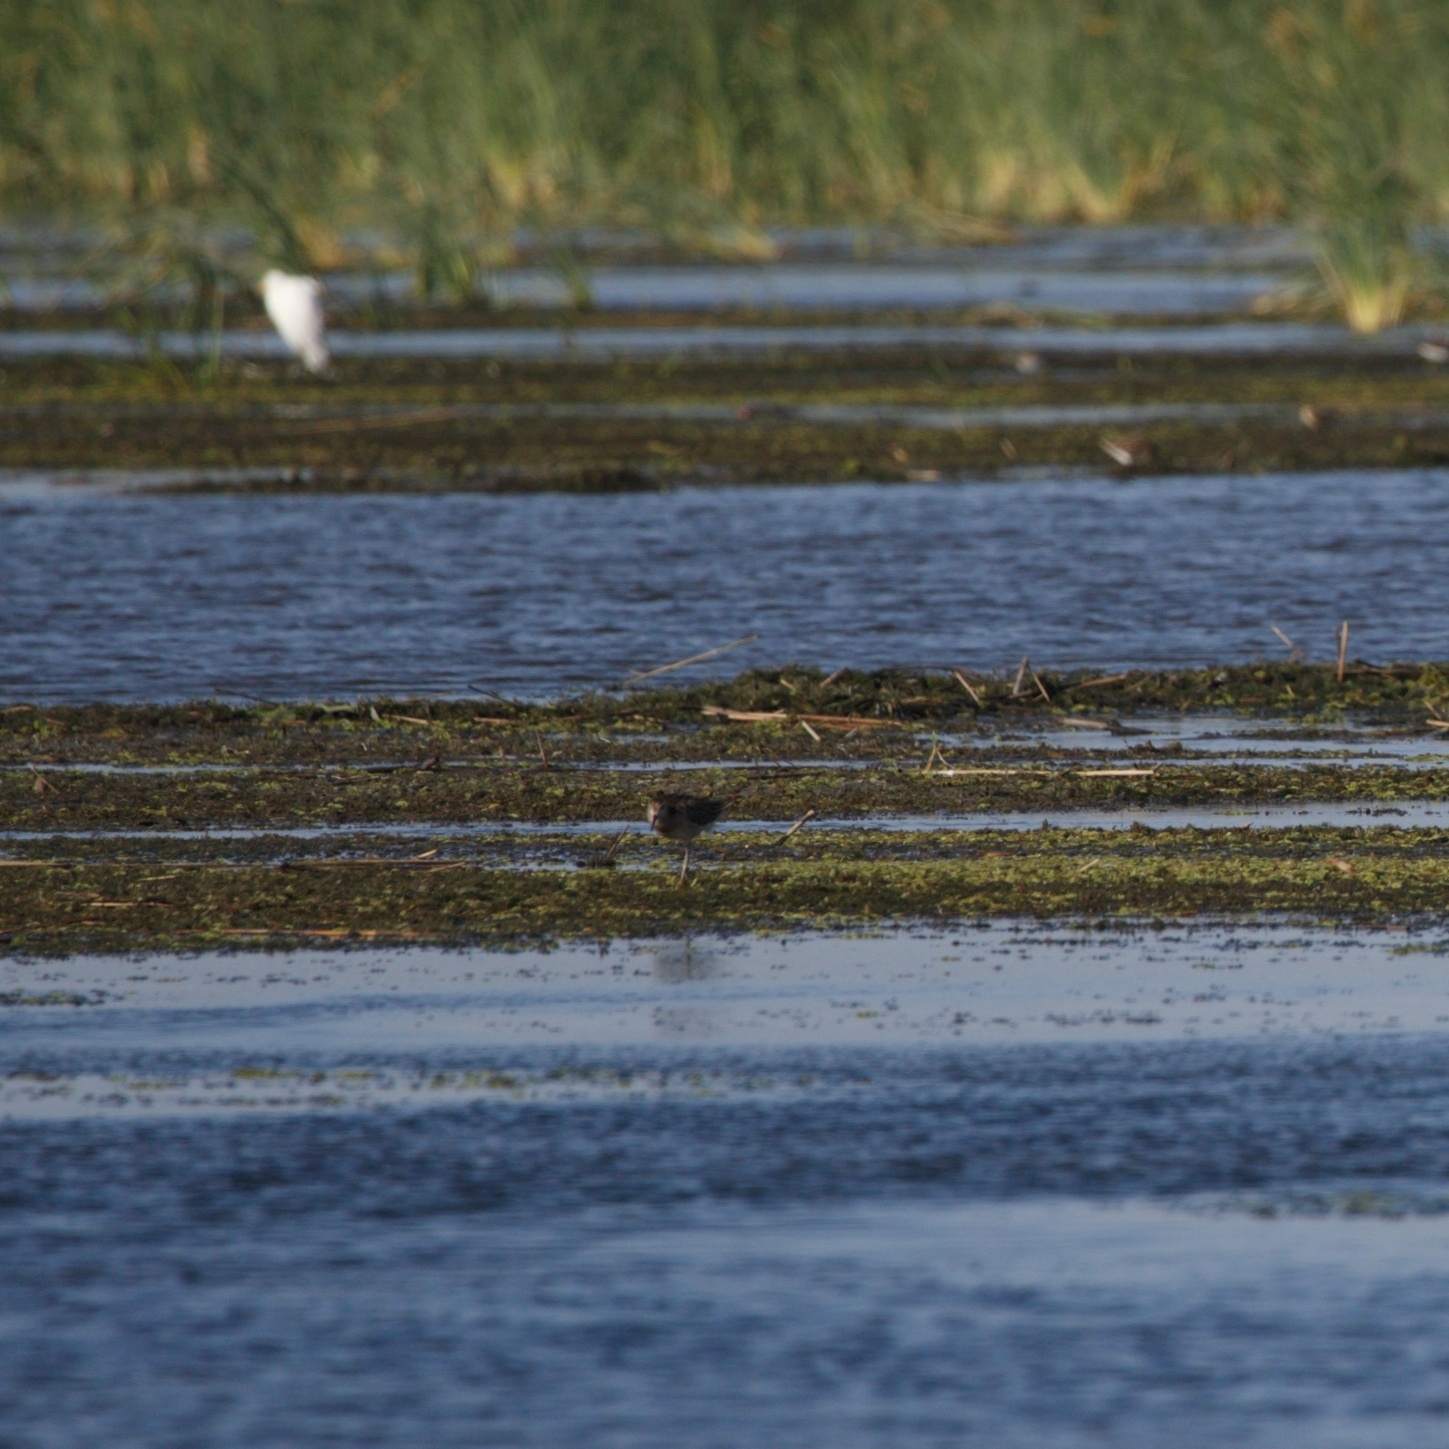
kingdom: Animalia
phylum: Chordata
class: Aves
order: Charadriiformes
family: Scolopacidae
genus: Calidris
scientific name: Calidris pugnax
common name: Ruff
